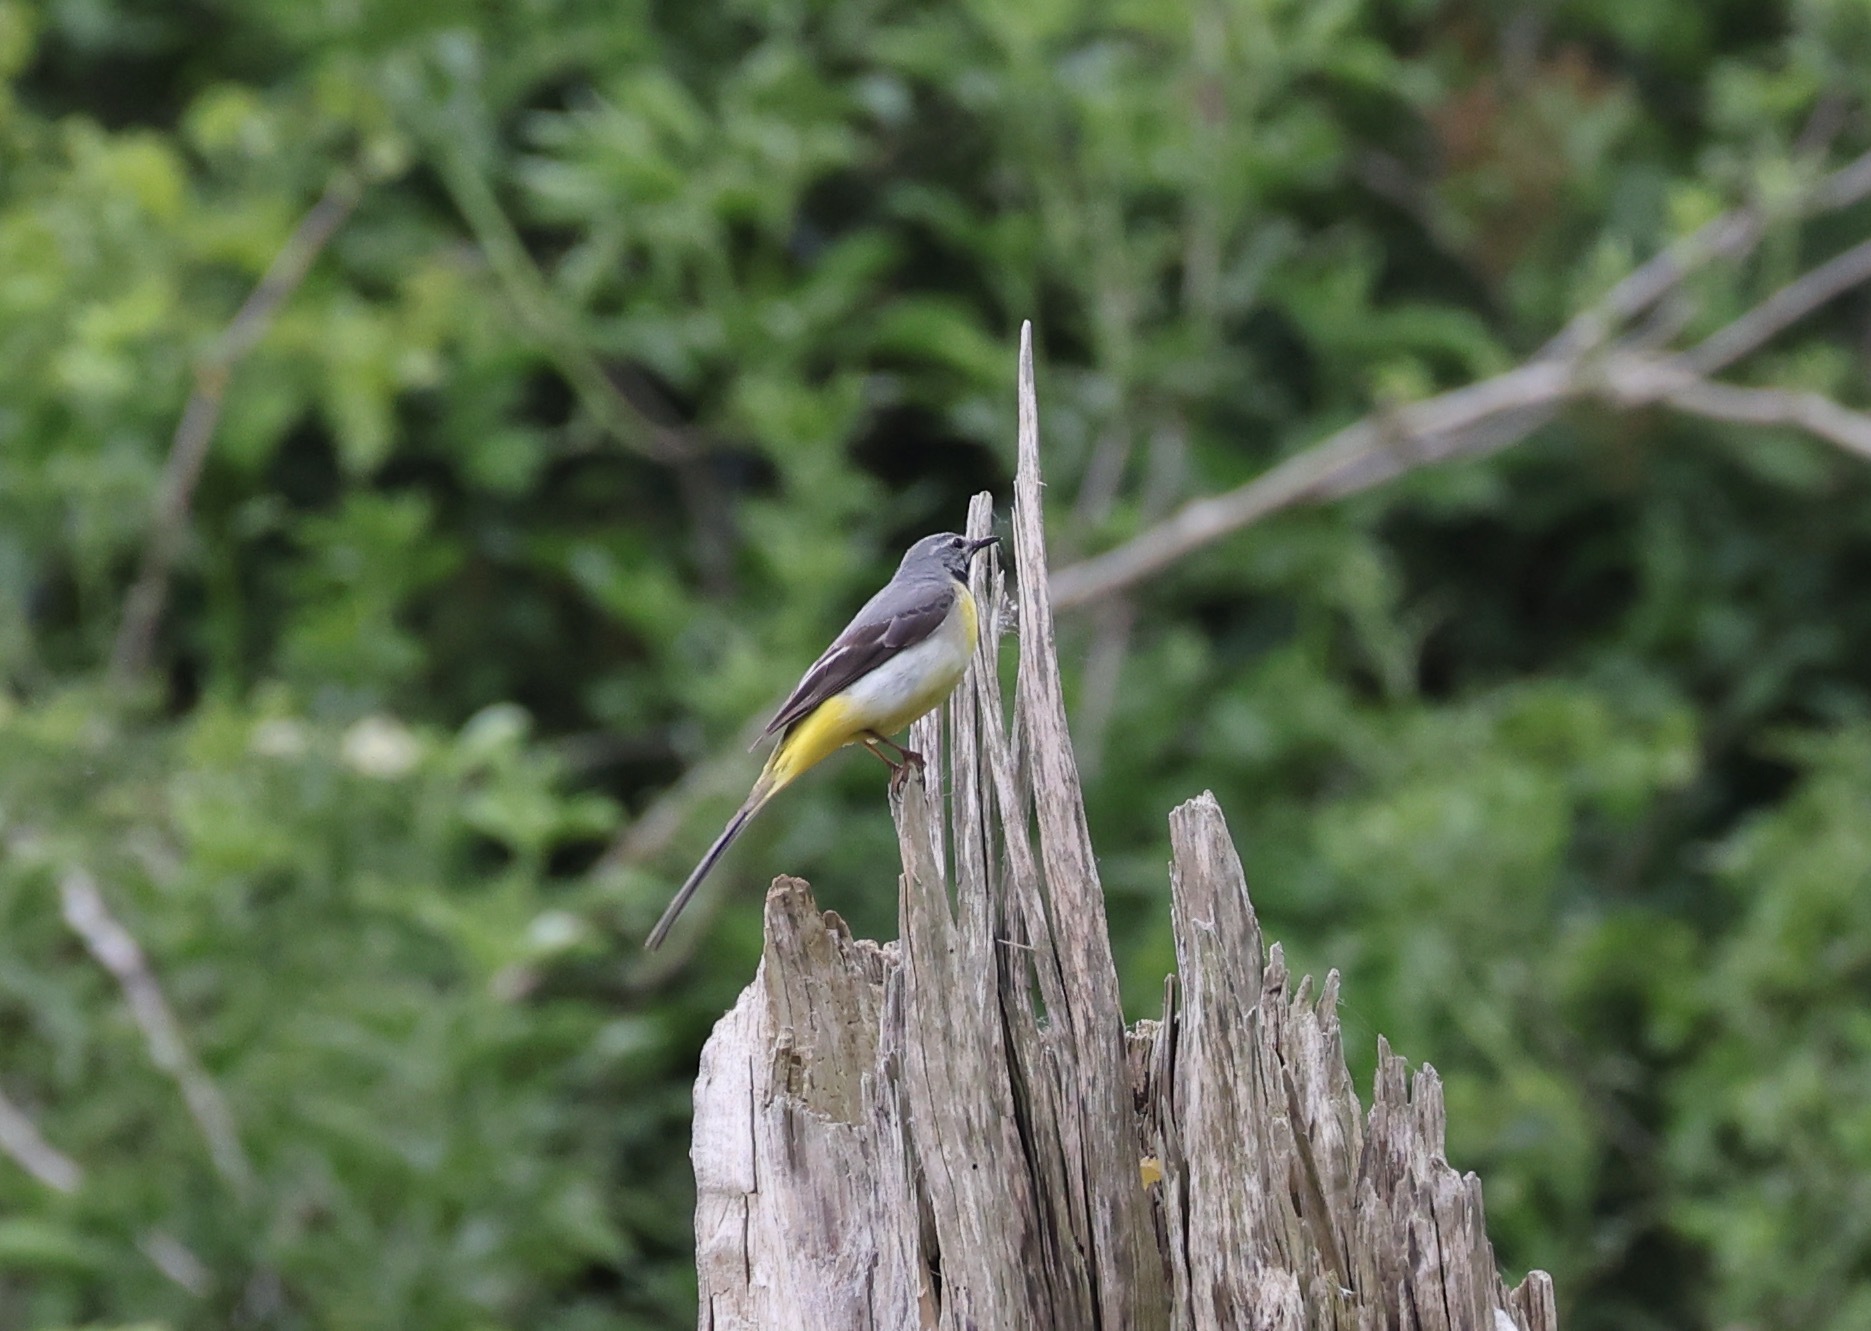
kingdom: Animalia
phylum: Chordata
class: Aves
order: Passeriformes
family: Motacillidae
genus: Motacilla
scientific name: Motacilla cinerea
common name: Grey wagtail
